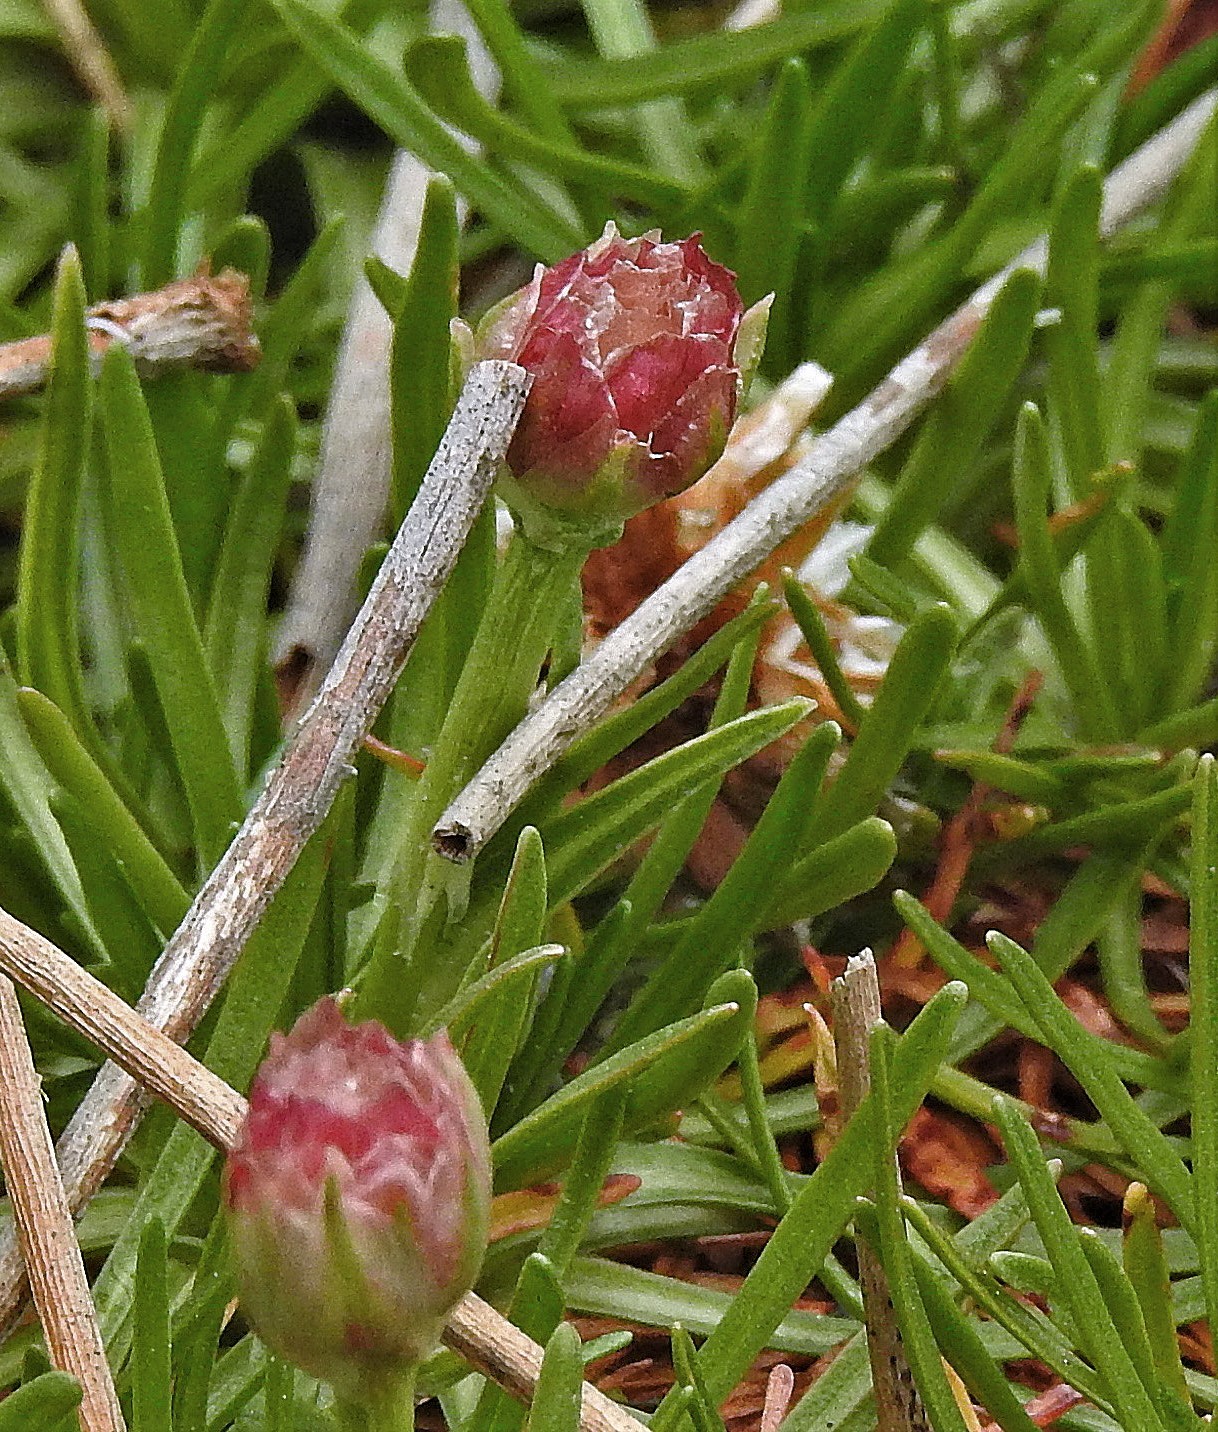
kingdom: Plantae
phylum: Tracheophyta
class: Magnoliopsida
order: Caryophyllales
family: Plumbaginaceae
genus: Armeria
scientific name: Armeria curvifolia
